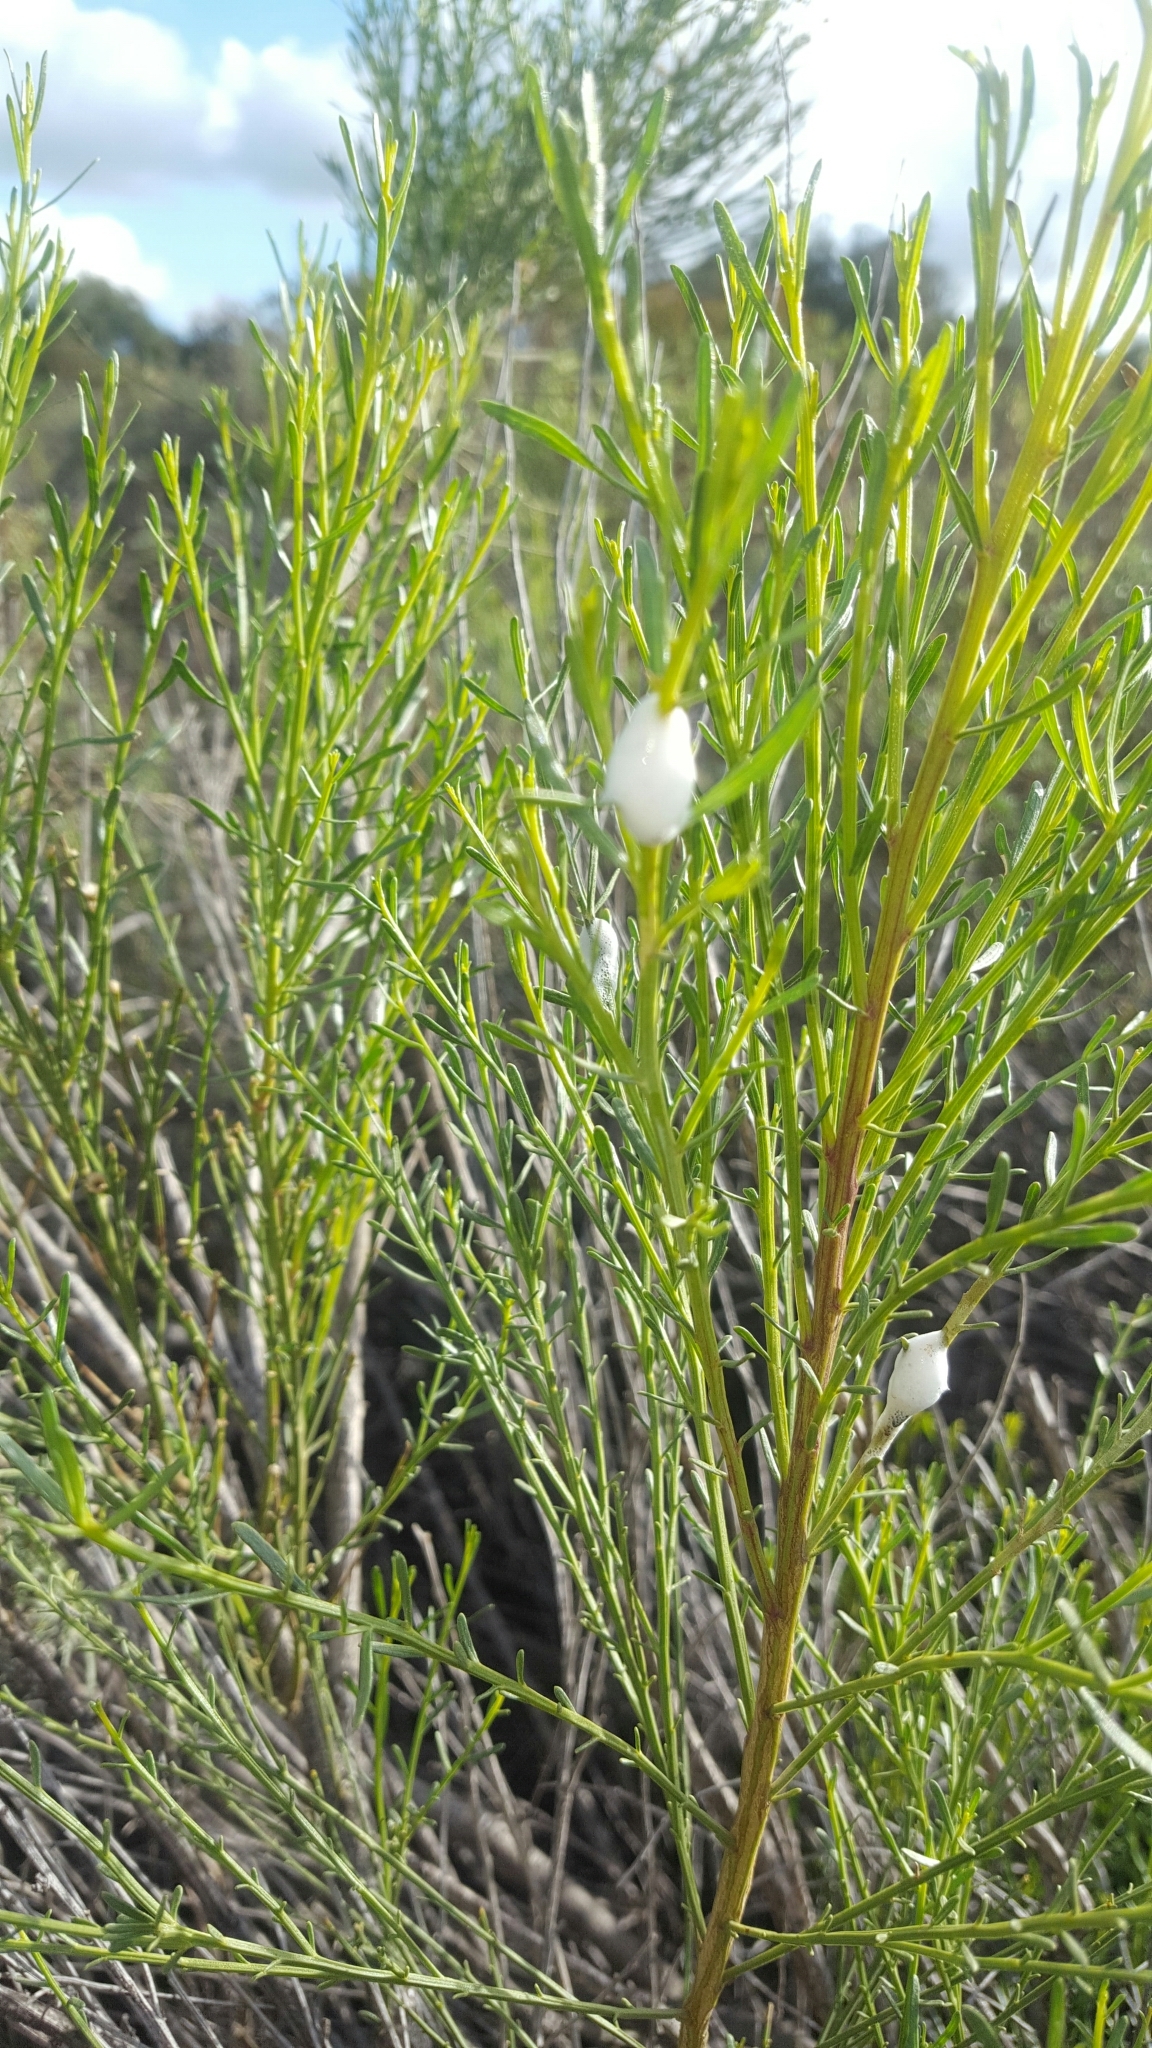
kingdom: Plantae
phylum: Tracheophyta
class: Magnoliopsida
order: Asterales
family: Asteraceae
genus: Baccharis
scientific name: Baccharis sarothroides
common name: Desert-broom
